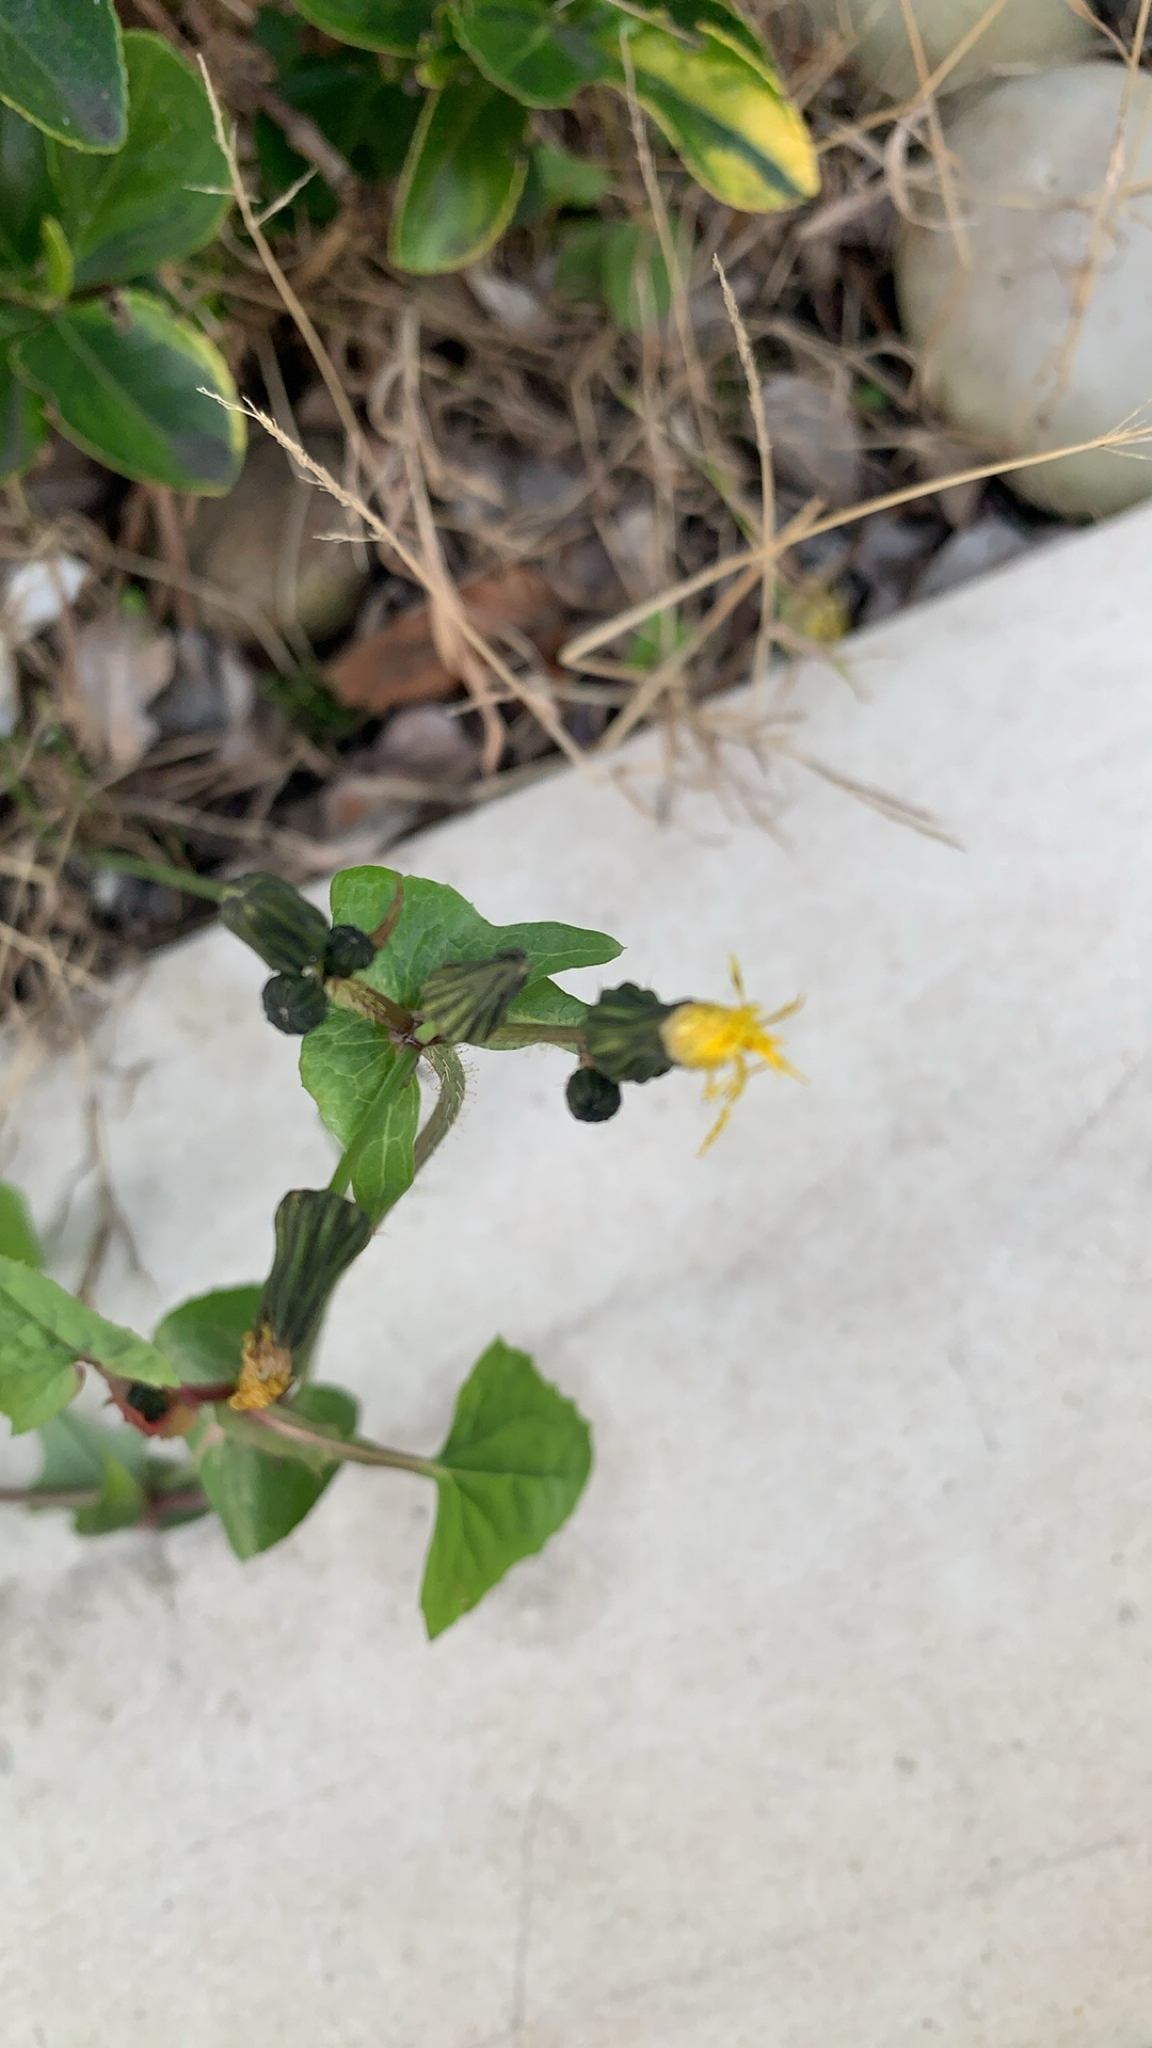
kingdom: Plantae
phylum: Tracheophyta
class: Magnoliopsida
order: Asterales
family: Asteraceae
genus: Sonchus
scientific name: Sonchus oleraceus
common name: Common sowthistle
